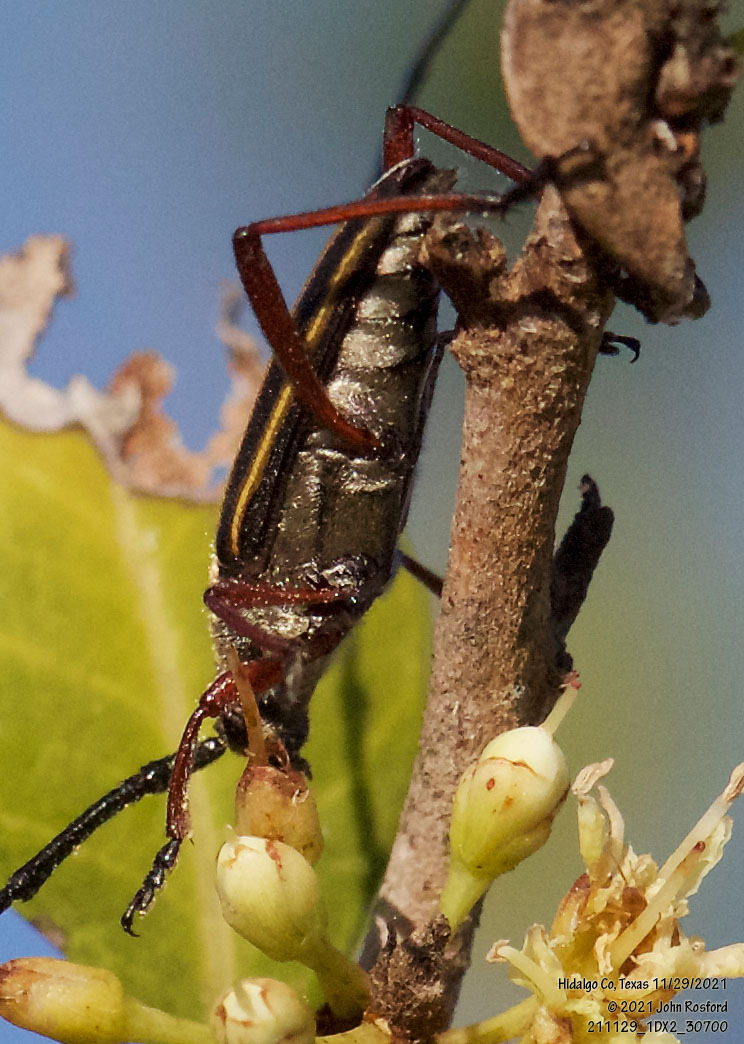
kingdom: Animalia
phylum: Arthropoda
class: Insecta
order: Coleoptera
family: Cerambycidae
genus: Sphaenothecus
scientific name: Sphaenothecus bilineatus
